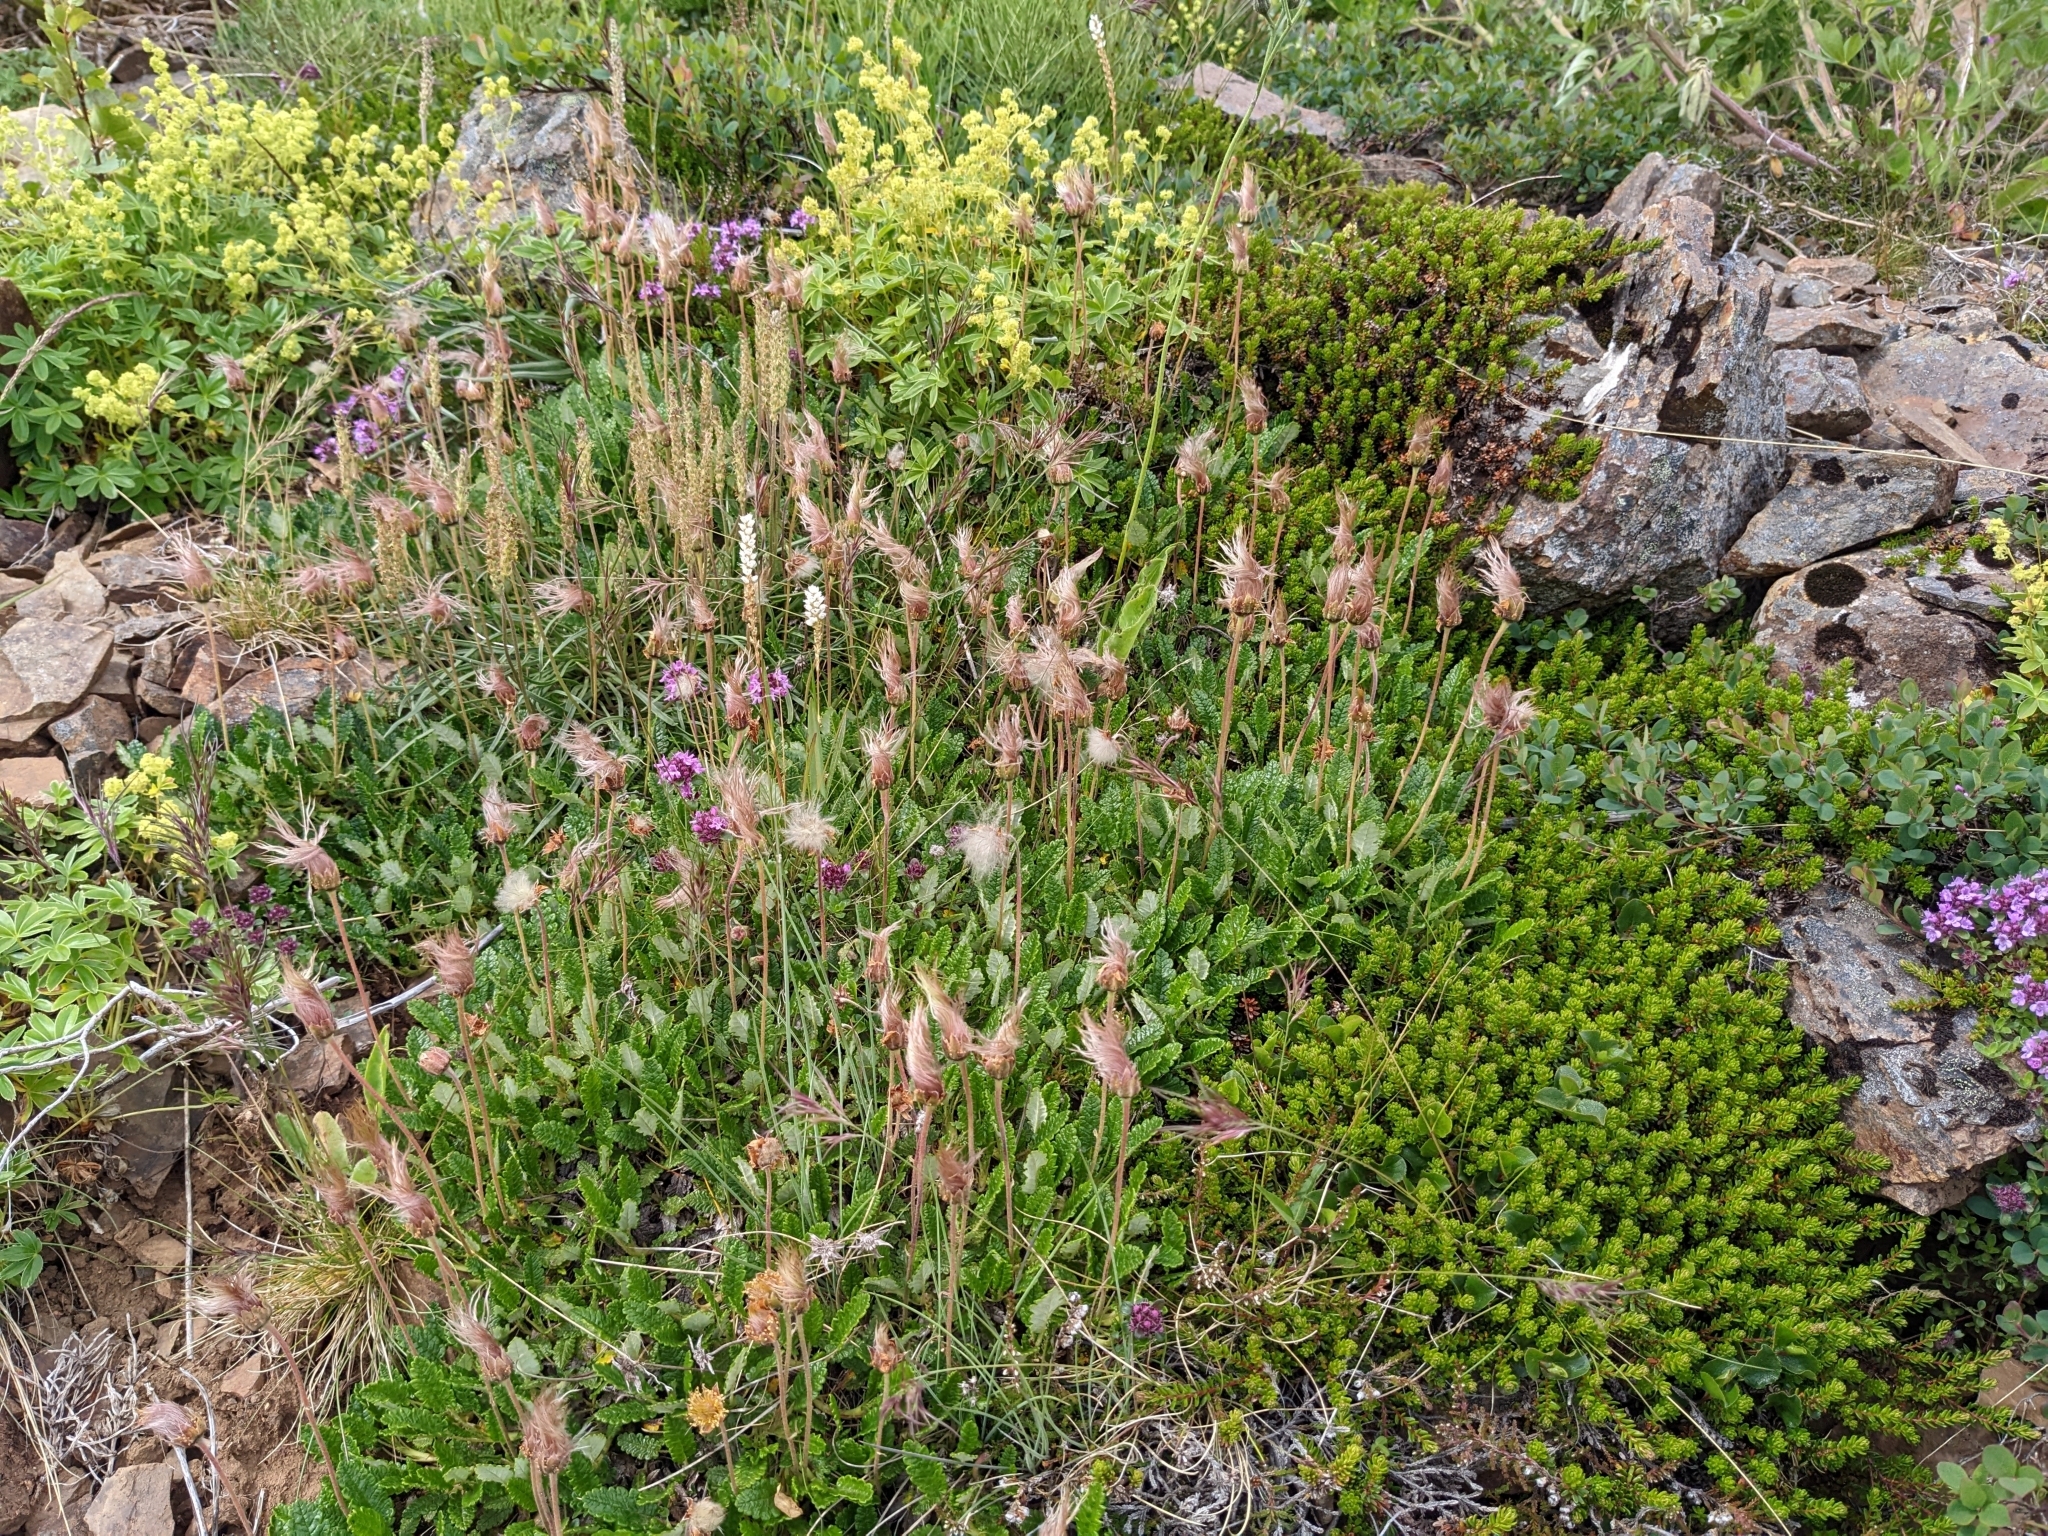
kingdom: Plantae
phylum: Tracheophyta
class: Magnoliopsida
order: Rosales
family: Rosaceae
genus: Dryas
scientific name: Dryas octopetala
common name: Eight-petal mountain-avens
